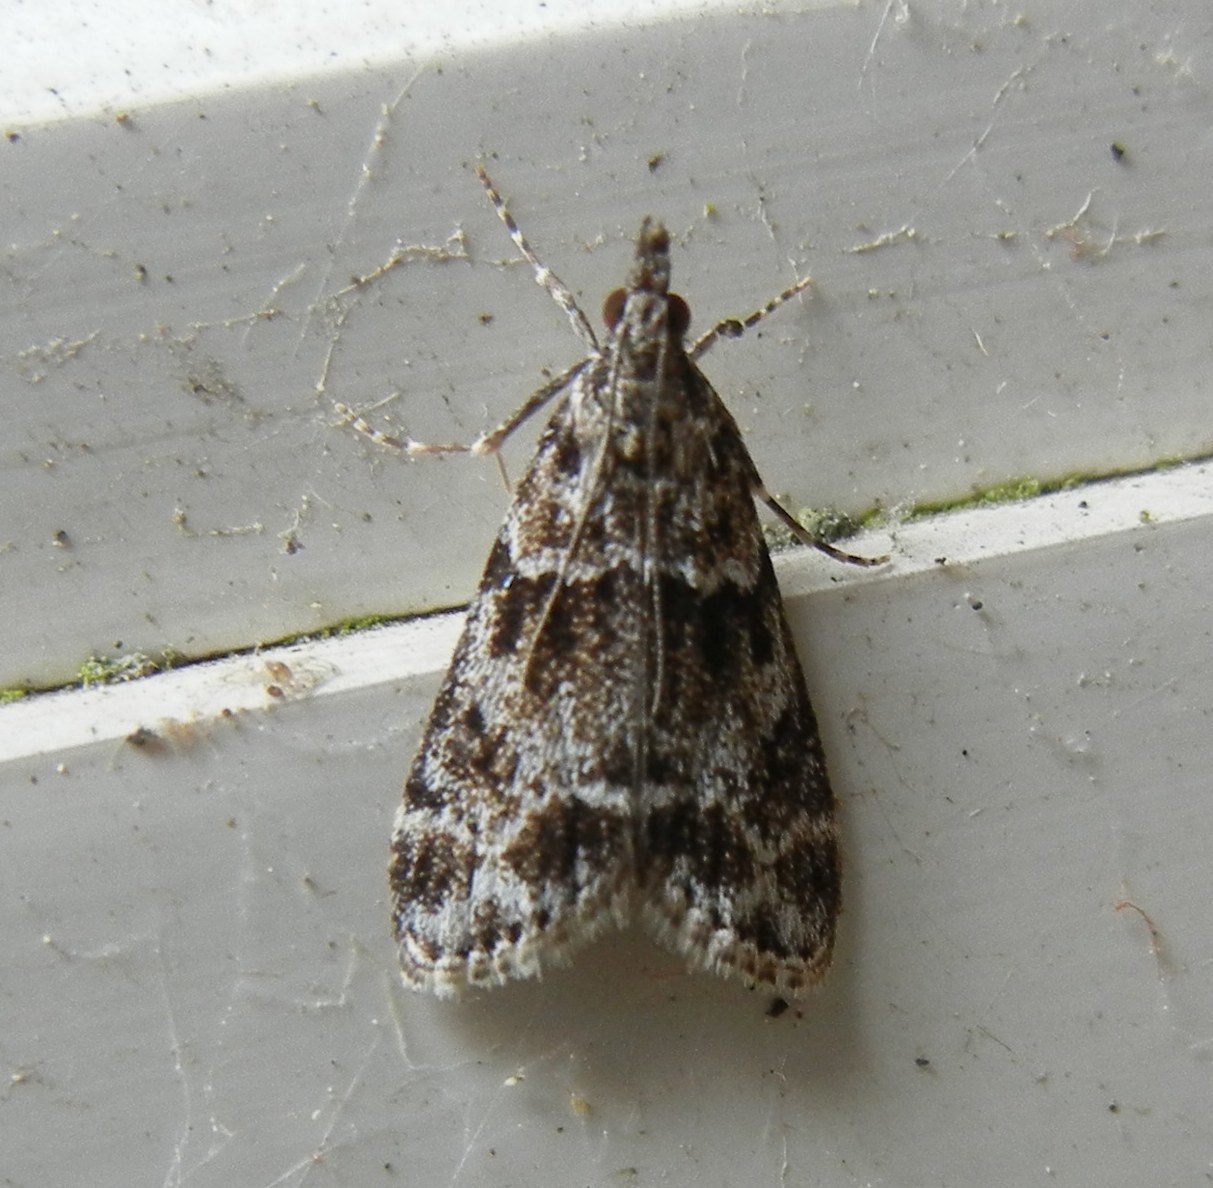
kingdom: Animalia
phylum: Arthropoda
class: Insecta
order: Lepidoptera
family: Crambidae
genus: Eudonia
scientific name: Eudonia mercurella
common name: Small grey
